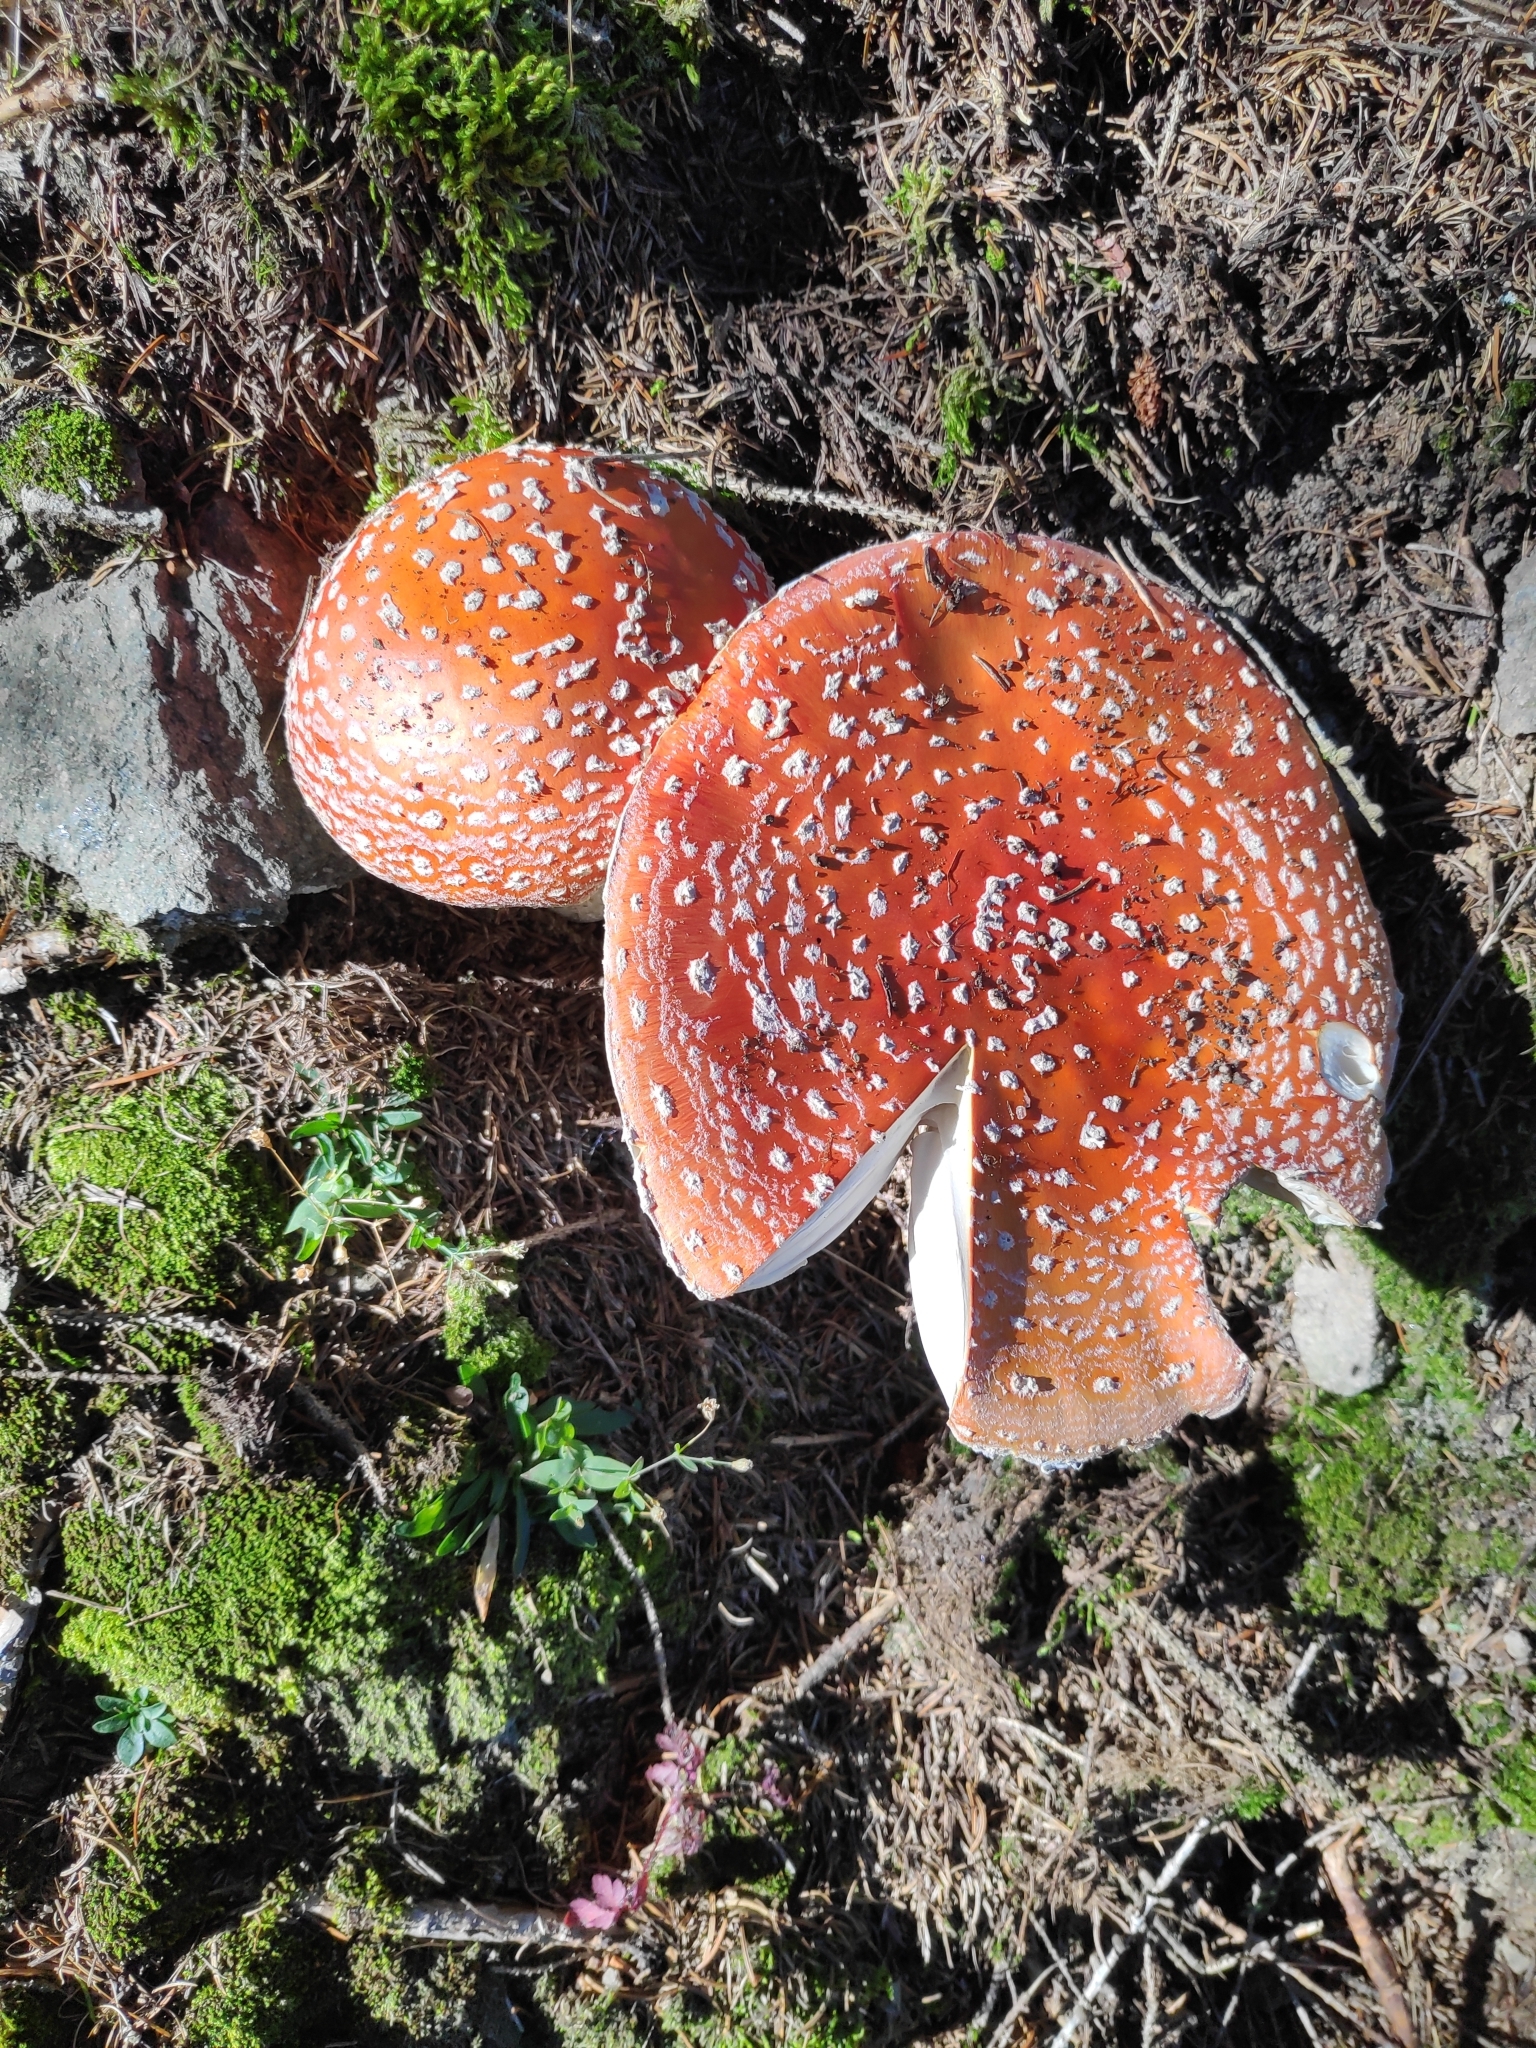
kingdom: Fungi
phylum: Basidiomycota
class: Agaricomycetes
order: Agaricales
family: Amanitaceae
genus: Amanita
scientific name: Amanita muscaria
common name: Fly agaric
